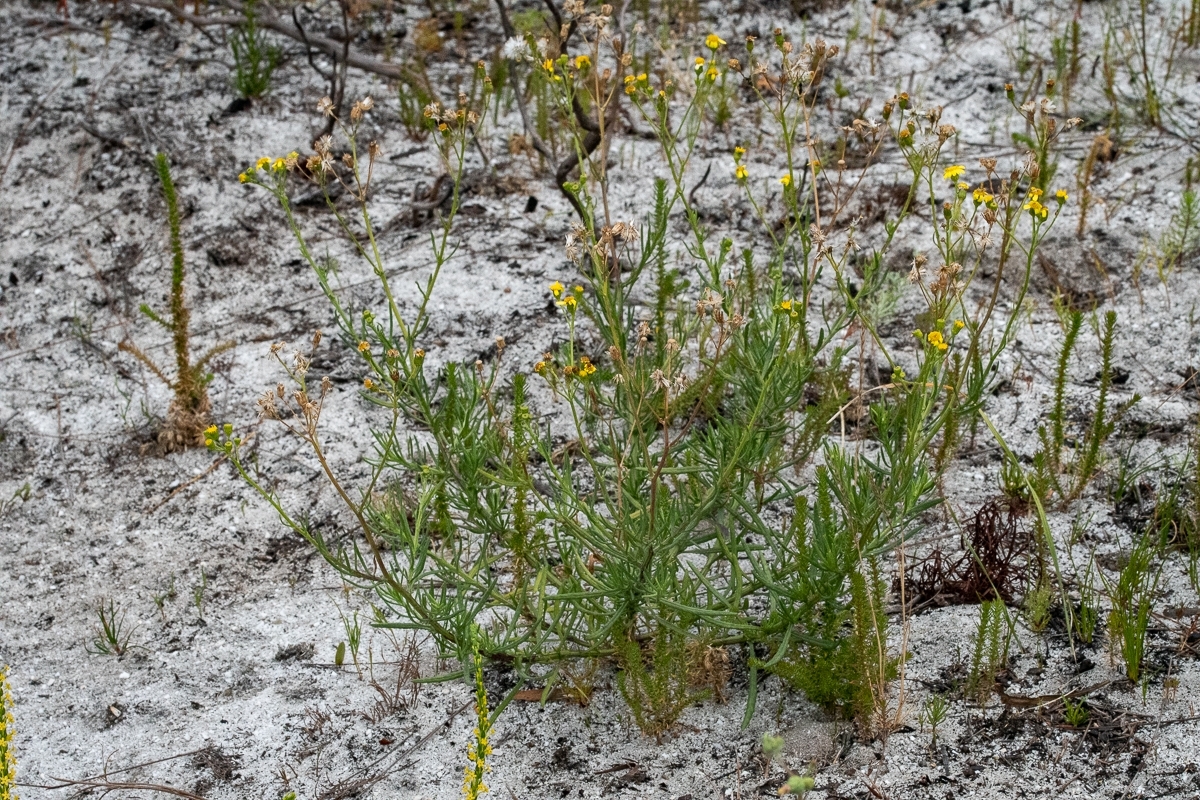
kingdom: Plantae
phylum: Tracheophyta
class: Magnoliopsida
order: Asterales
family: Asteraceae
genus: Senecio
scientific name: Senecio burchellii
